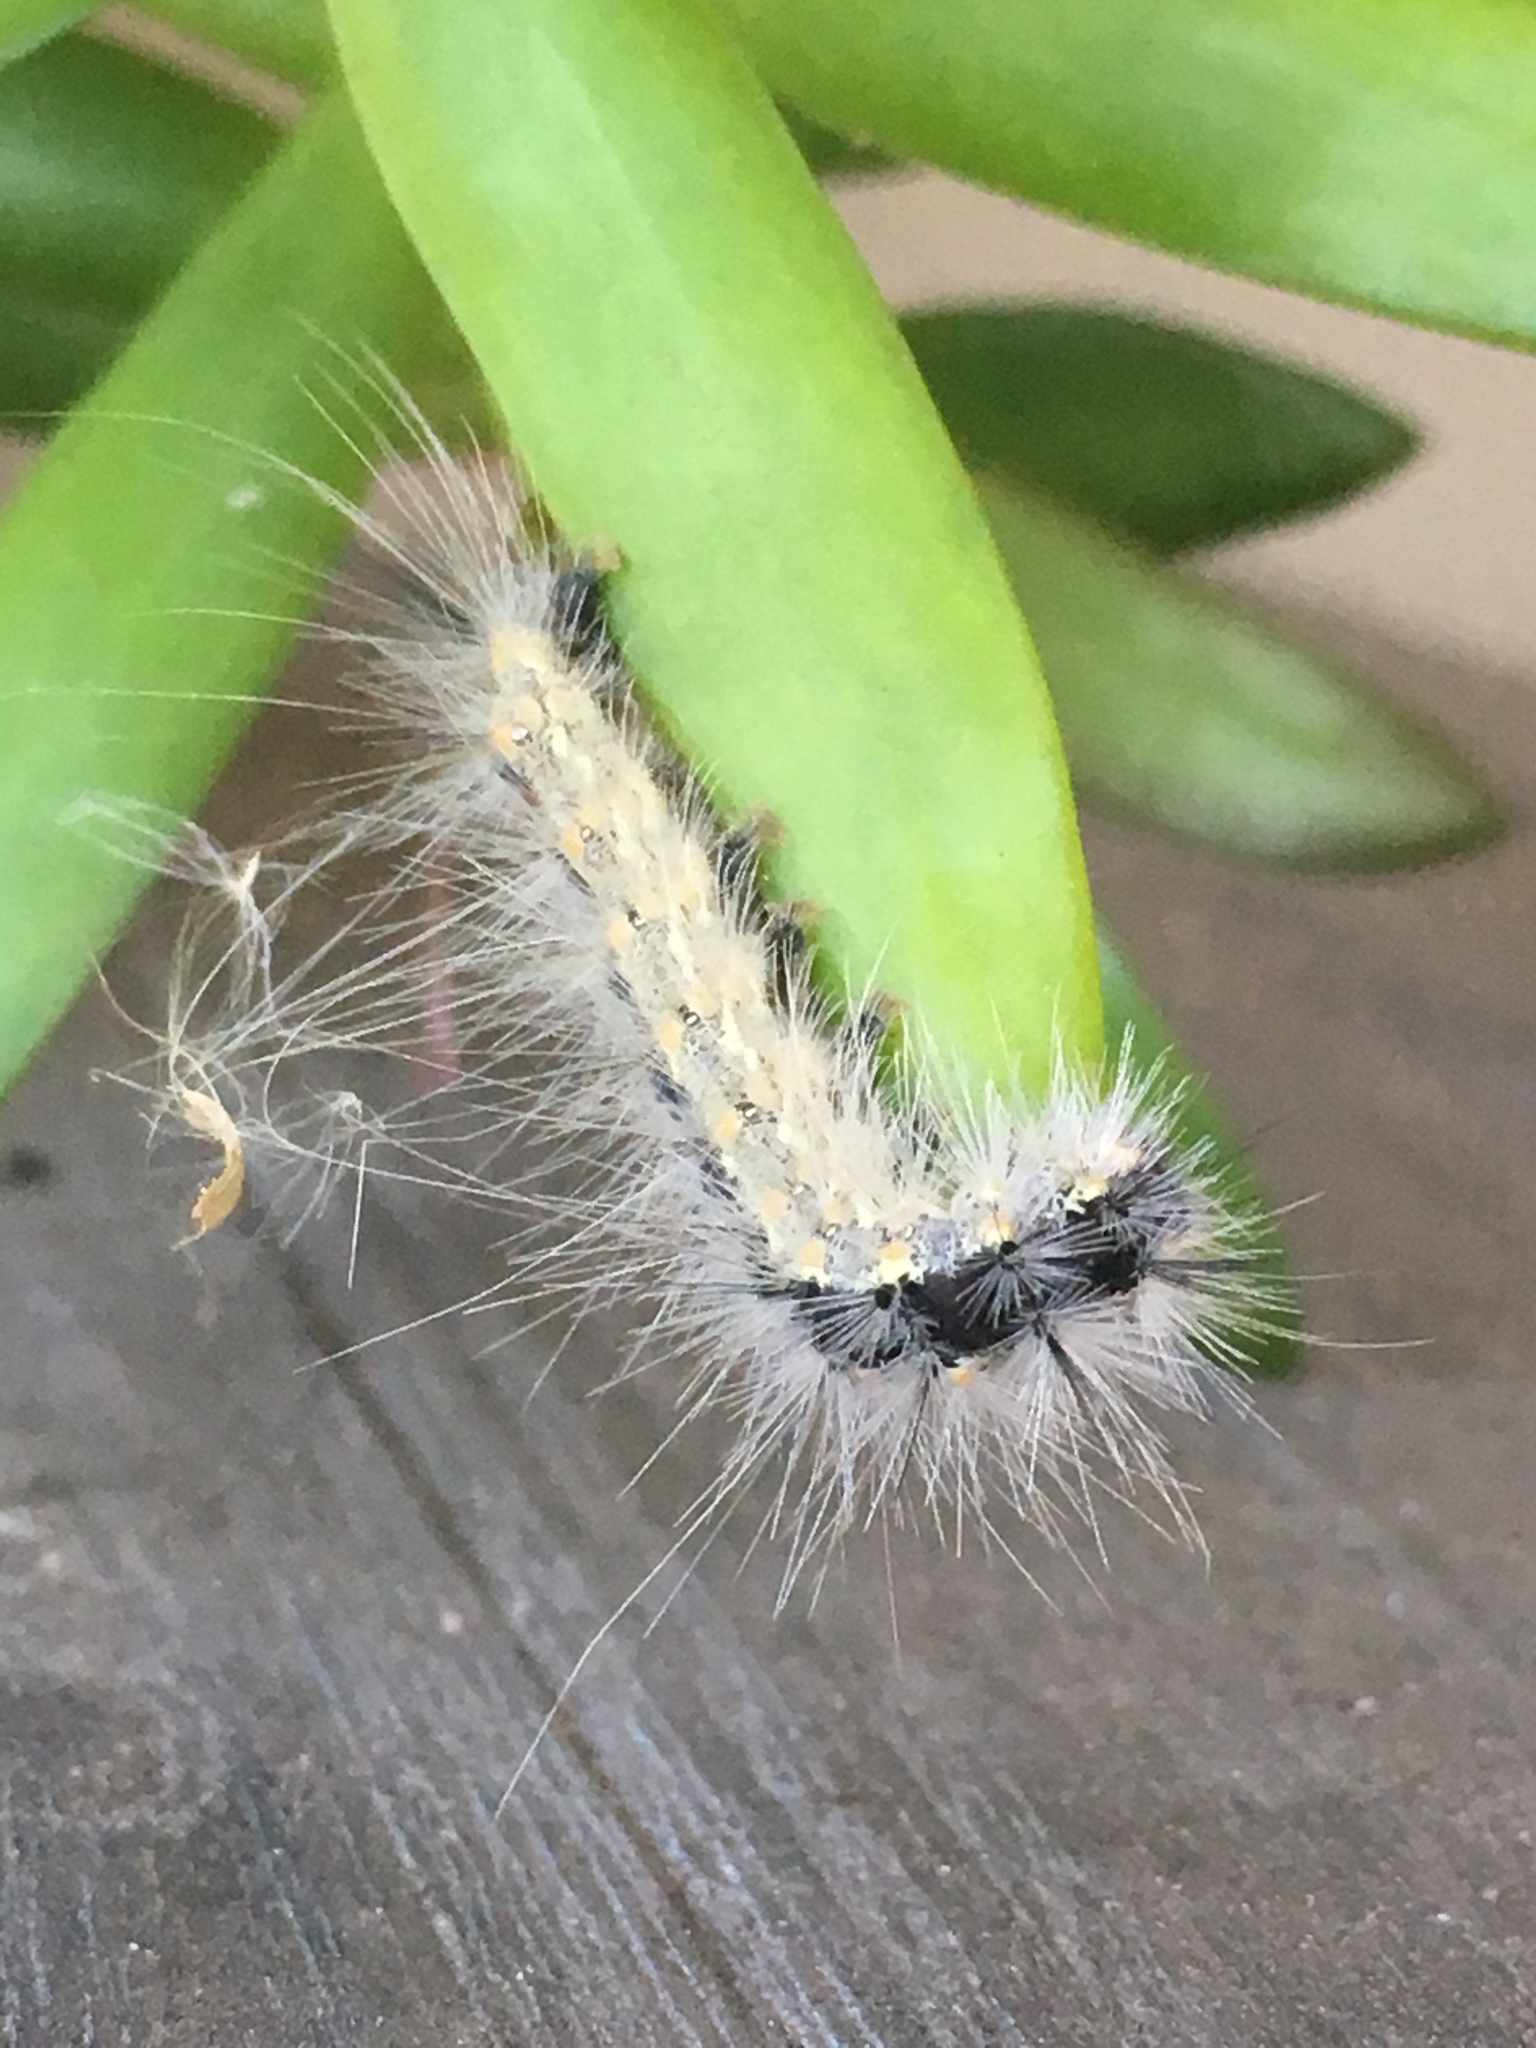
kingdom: Animalia
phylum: Arthropoda
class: Insecta
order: Lepidoptera
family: Erebidae
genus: Hyphantria
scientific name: Hyphantria cunea
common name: American white moth
